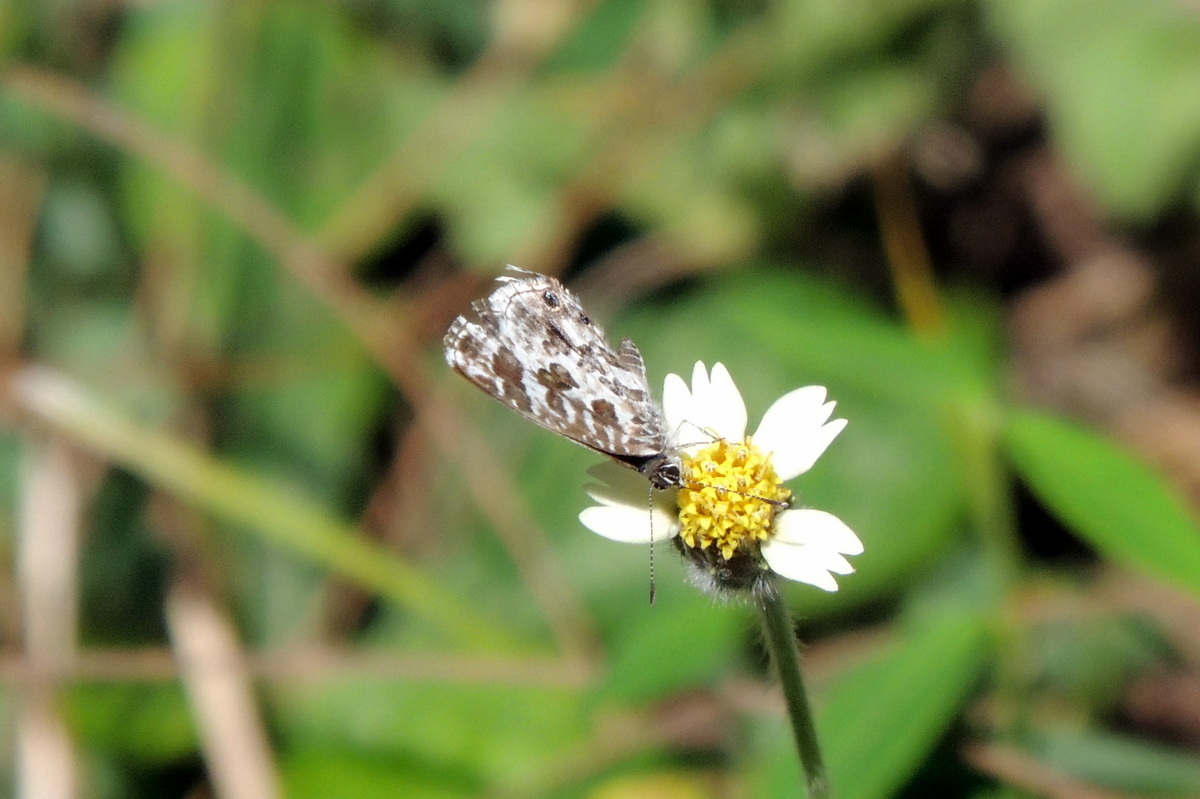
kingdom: Animalia
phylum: Arthropoda
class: Insecta
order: Lepidoptera
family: Lycaenidae
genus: Cacyreus
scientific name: Cacyreus lingeus
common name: Bush bronze
